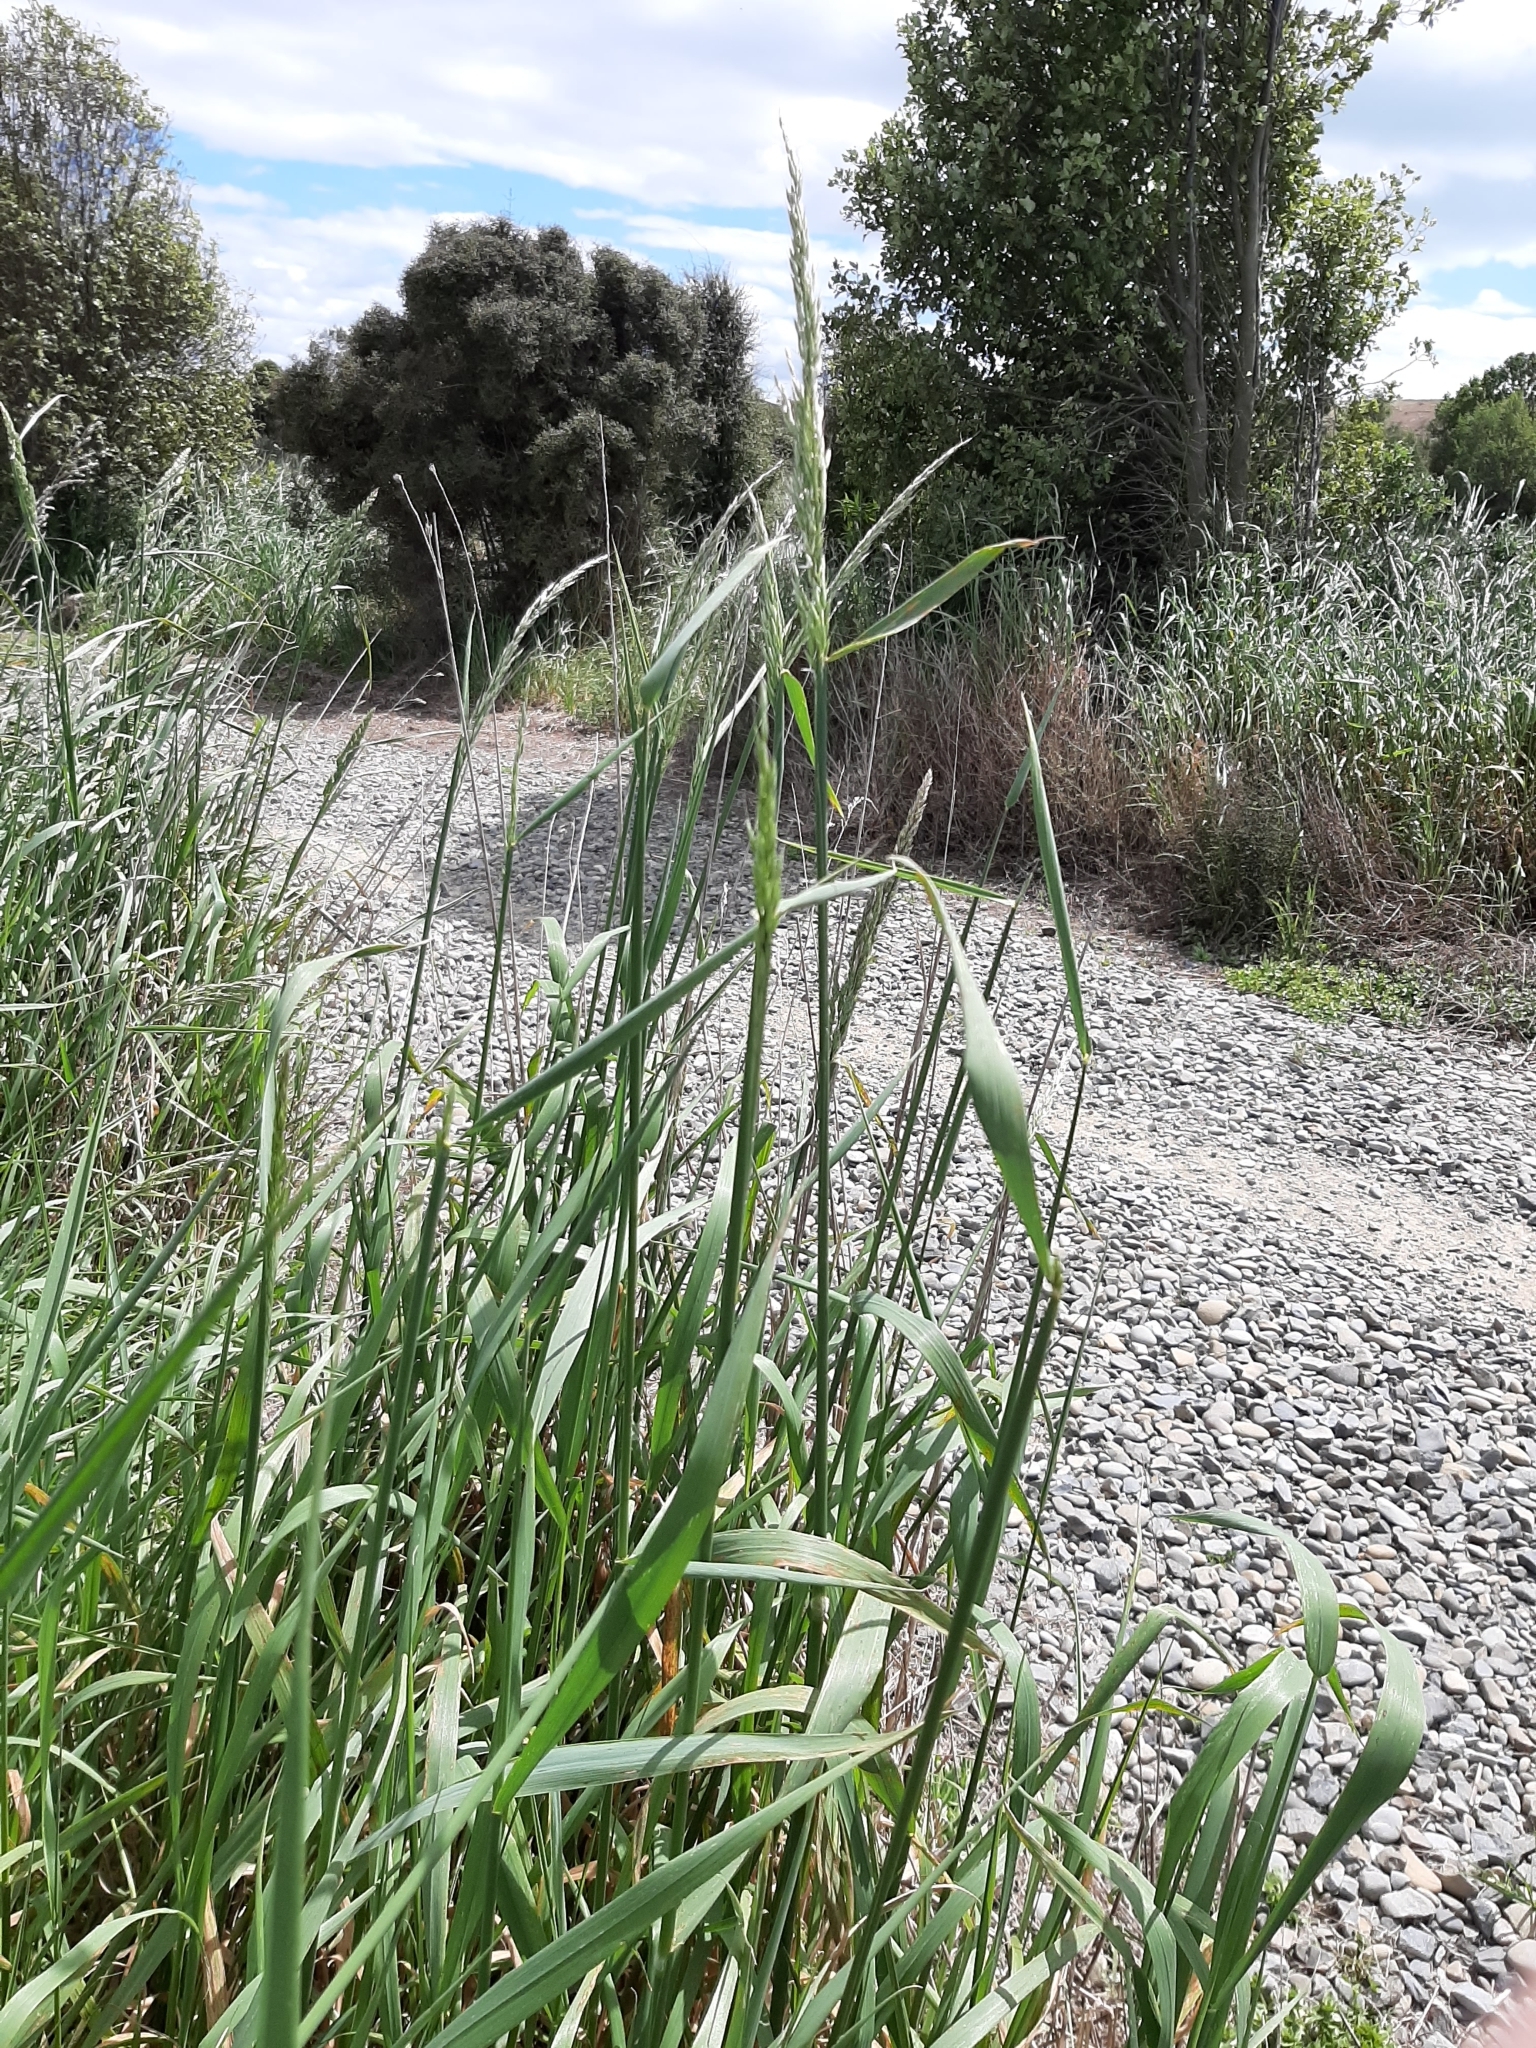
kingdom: Plantae
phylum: Tracheophyta
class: Liliopsida
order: Poales
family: Poaceae
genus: Arrhenatherum
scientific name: Arrhenatherum elatius
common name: Tall oatgrass
